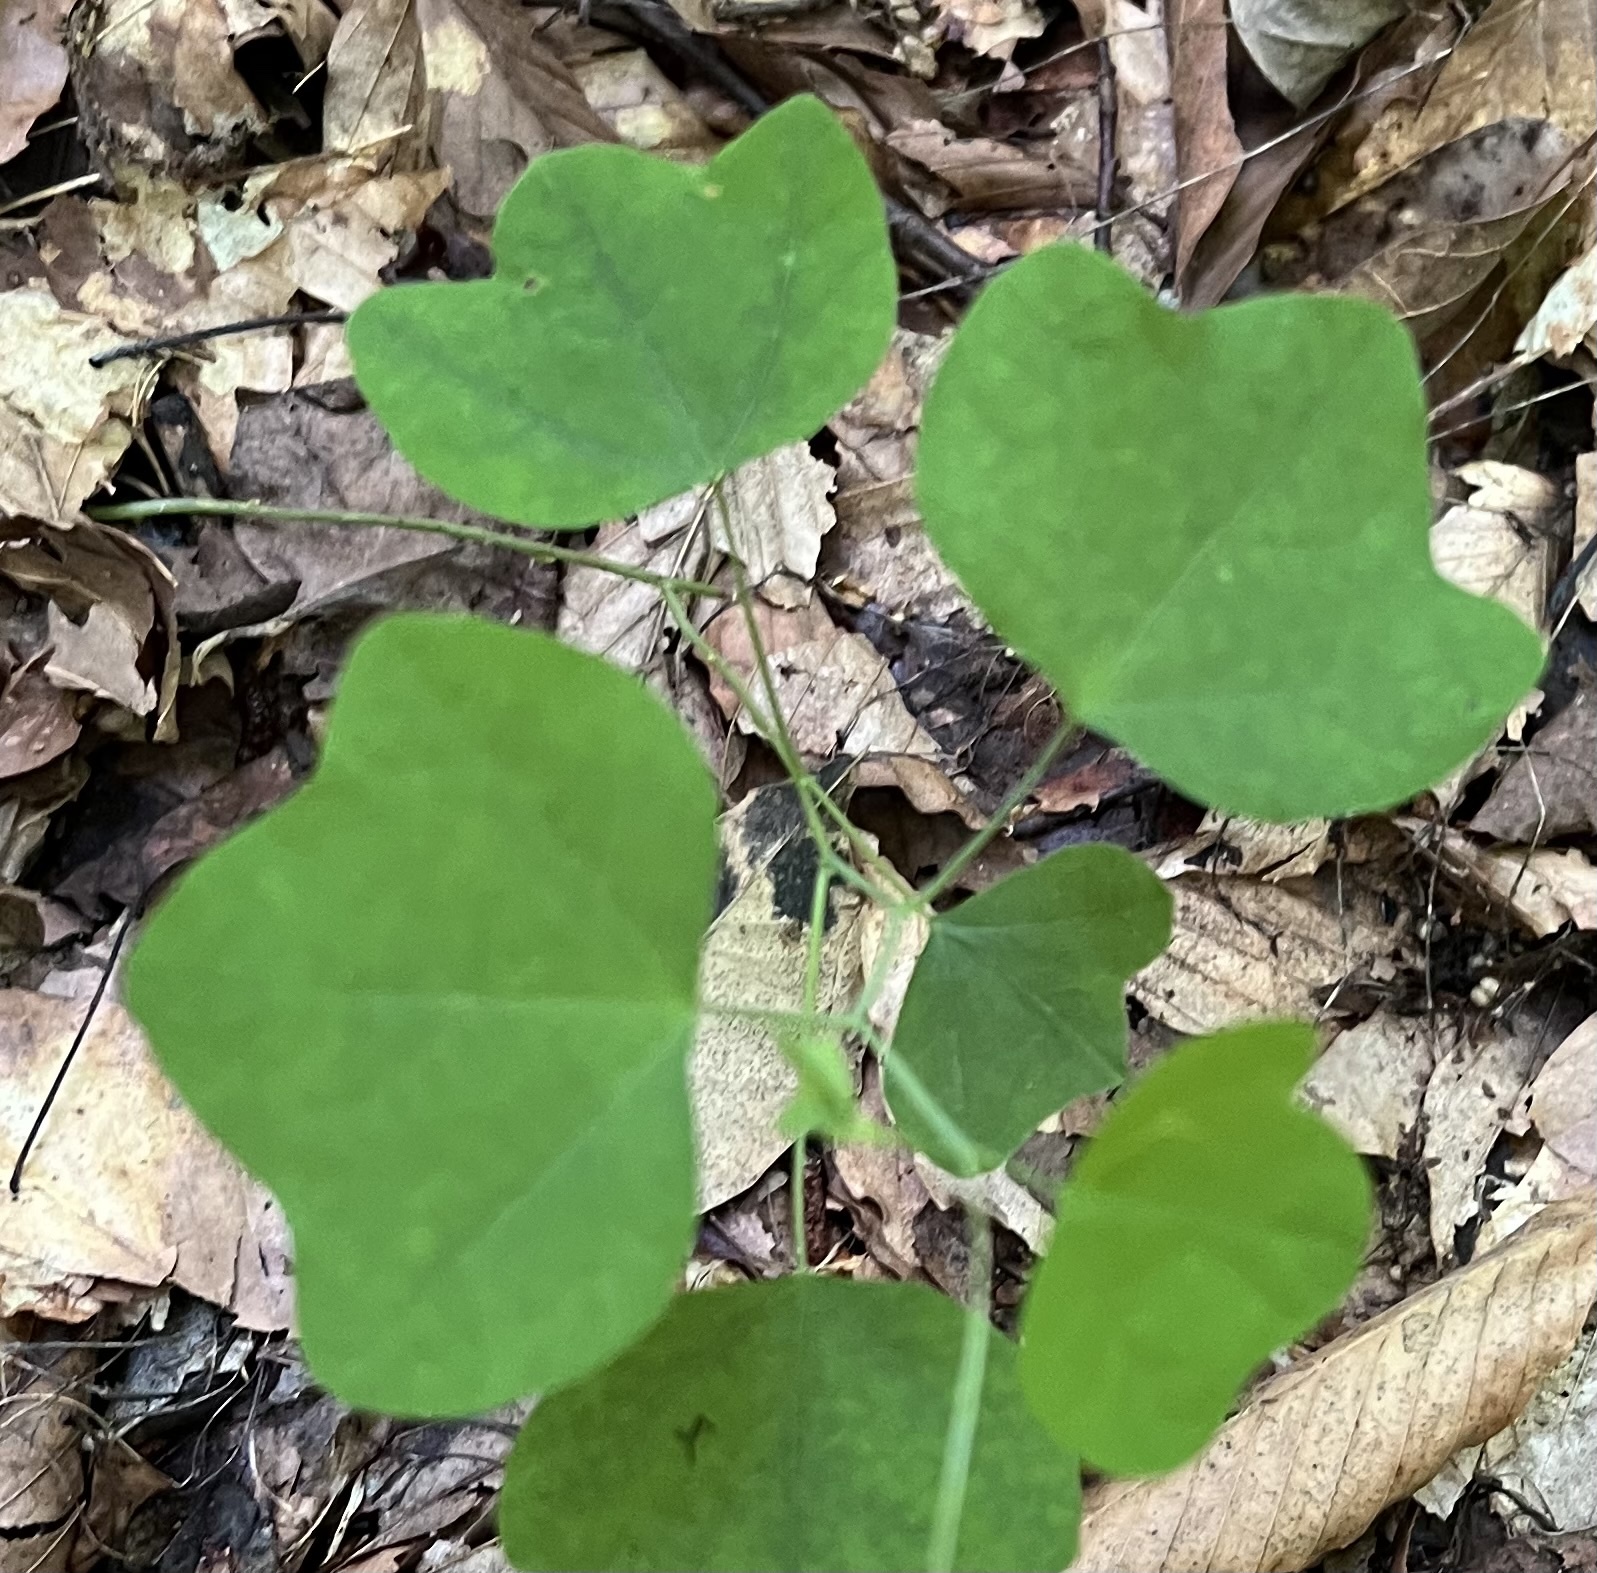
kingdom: Plantae
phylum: Tracheophyta
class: Magnoliopsida
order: Malpighiales
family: Passifloraceae
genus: Passiflora
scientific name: Passiflora lutea
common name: Yellow passionflower
